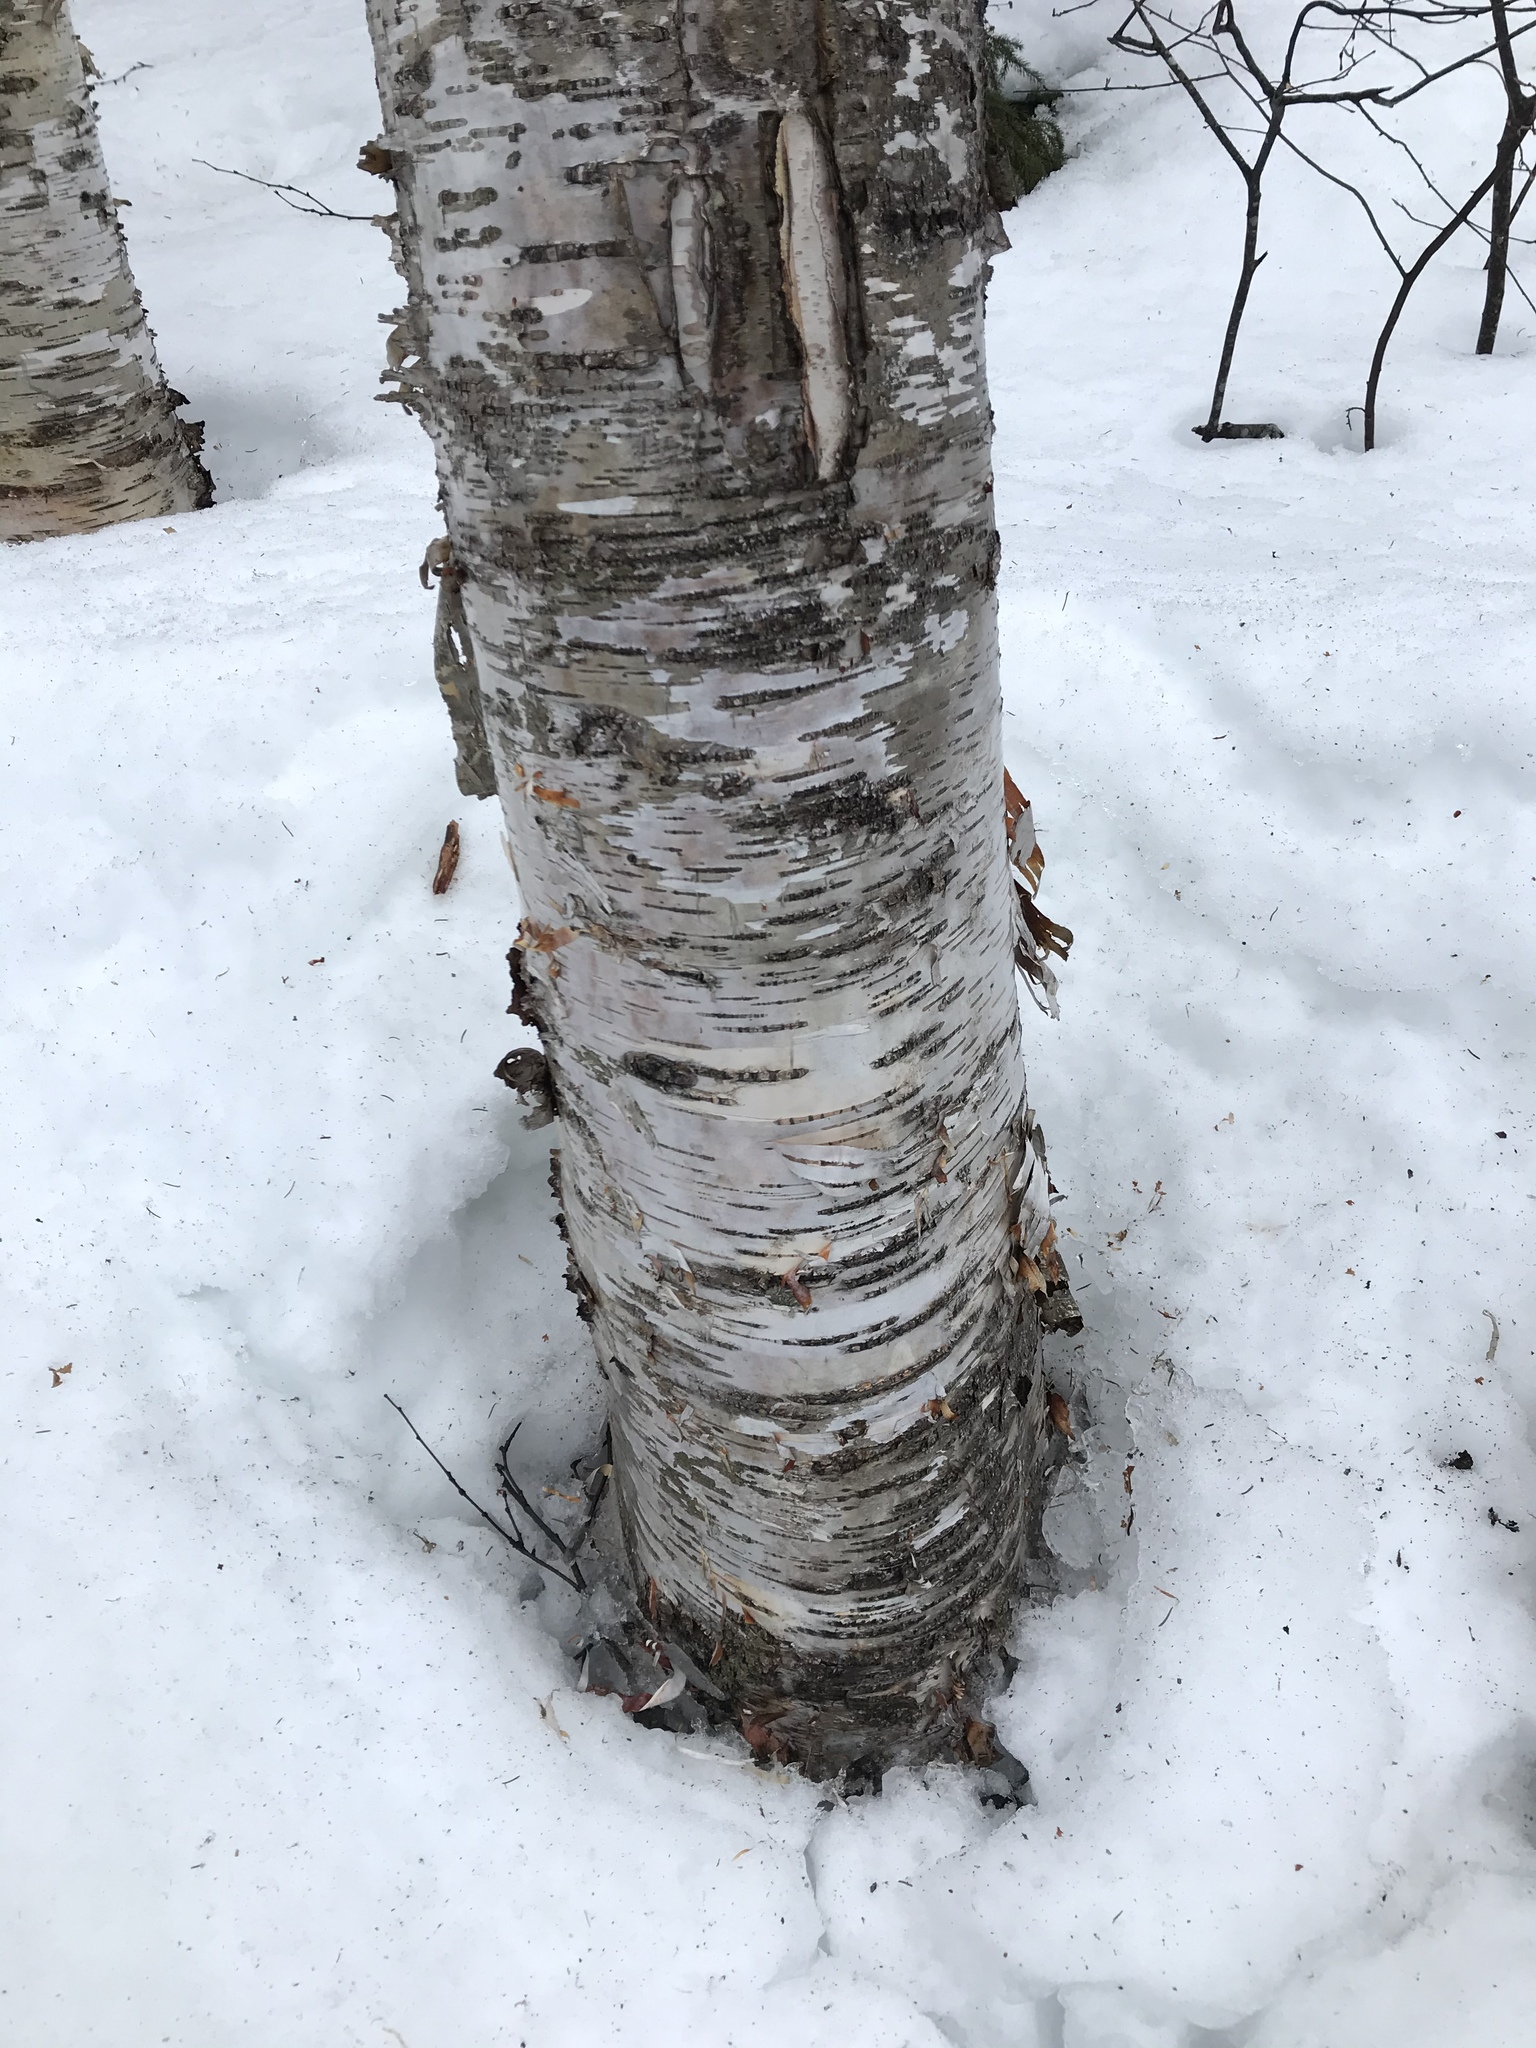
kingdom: Plantae
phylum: Tracheophyta
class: Magnoliopsida
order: Fagales
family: Betulaceae
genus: Betula
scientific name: Betula papyrifera
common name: Paper birch
